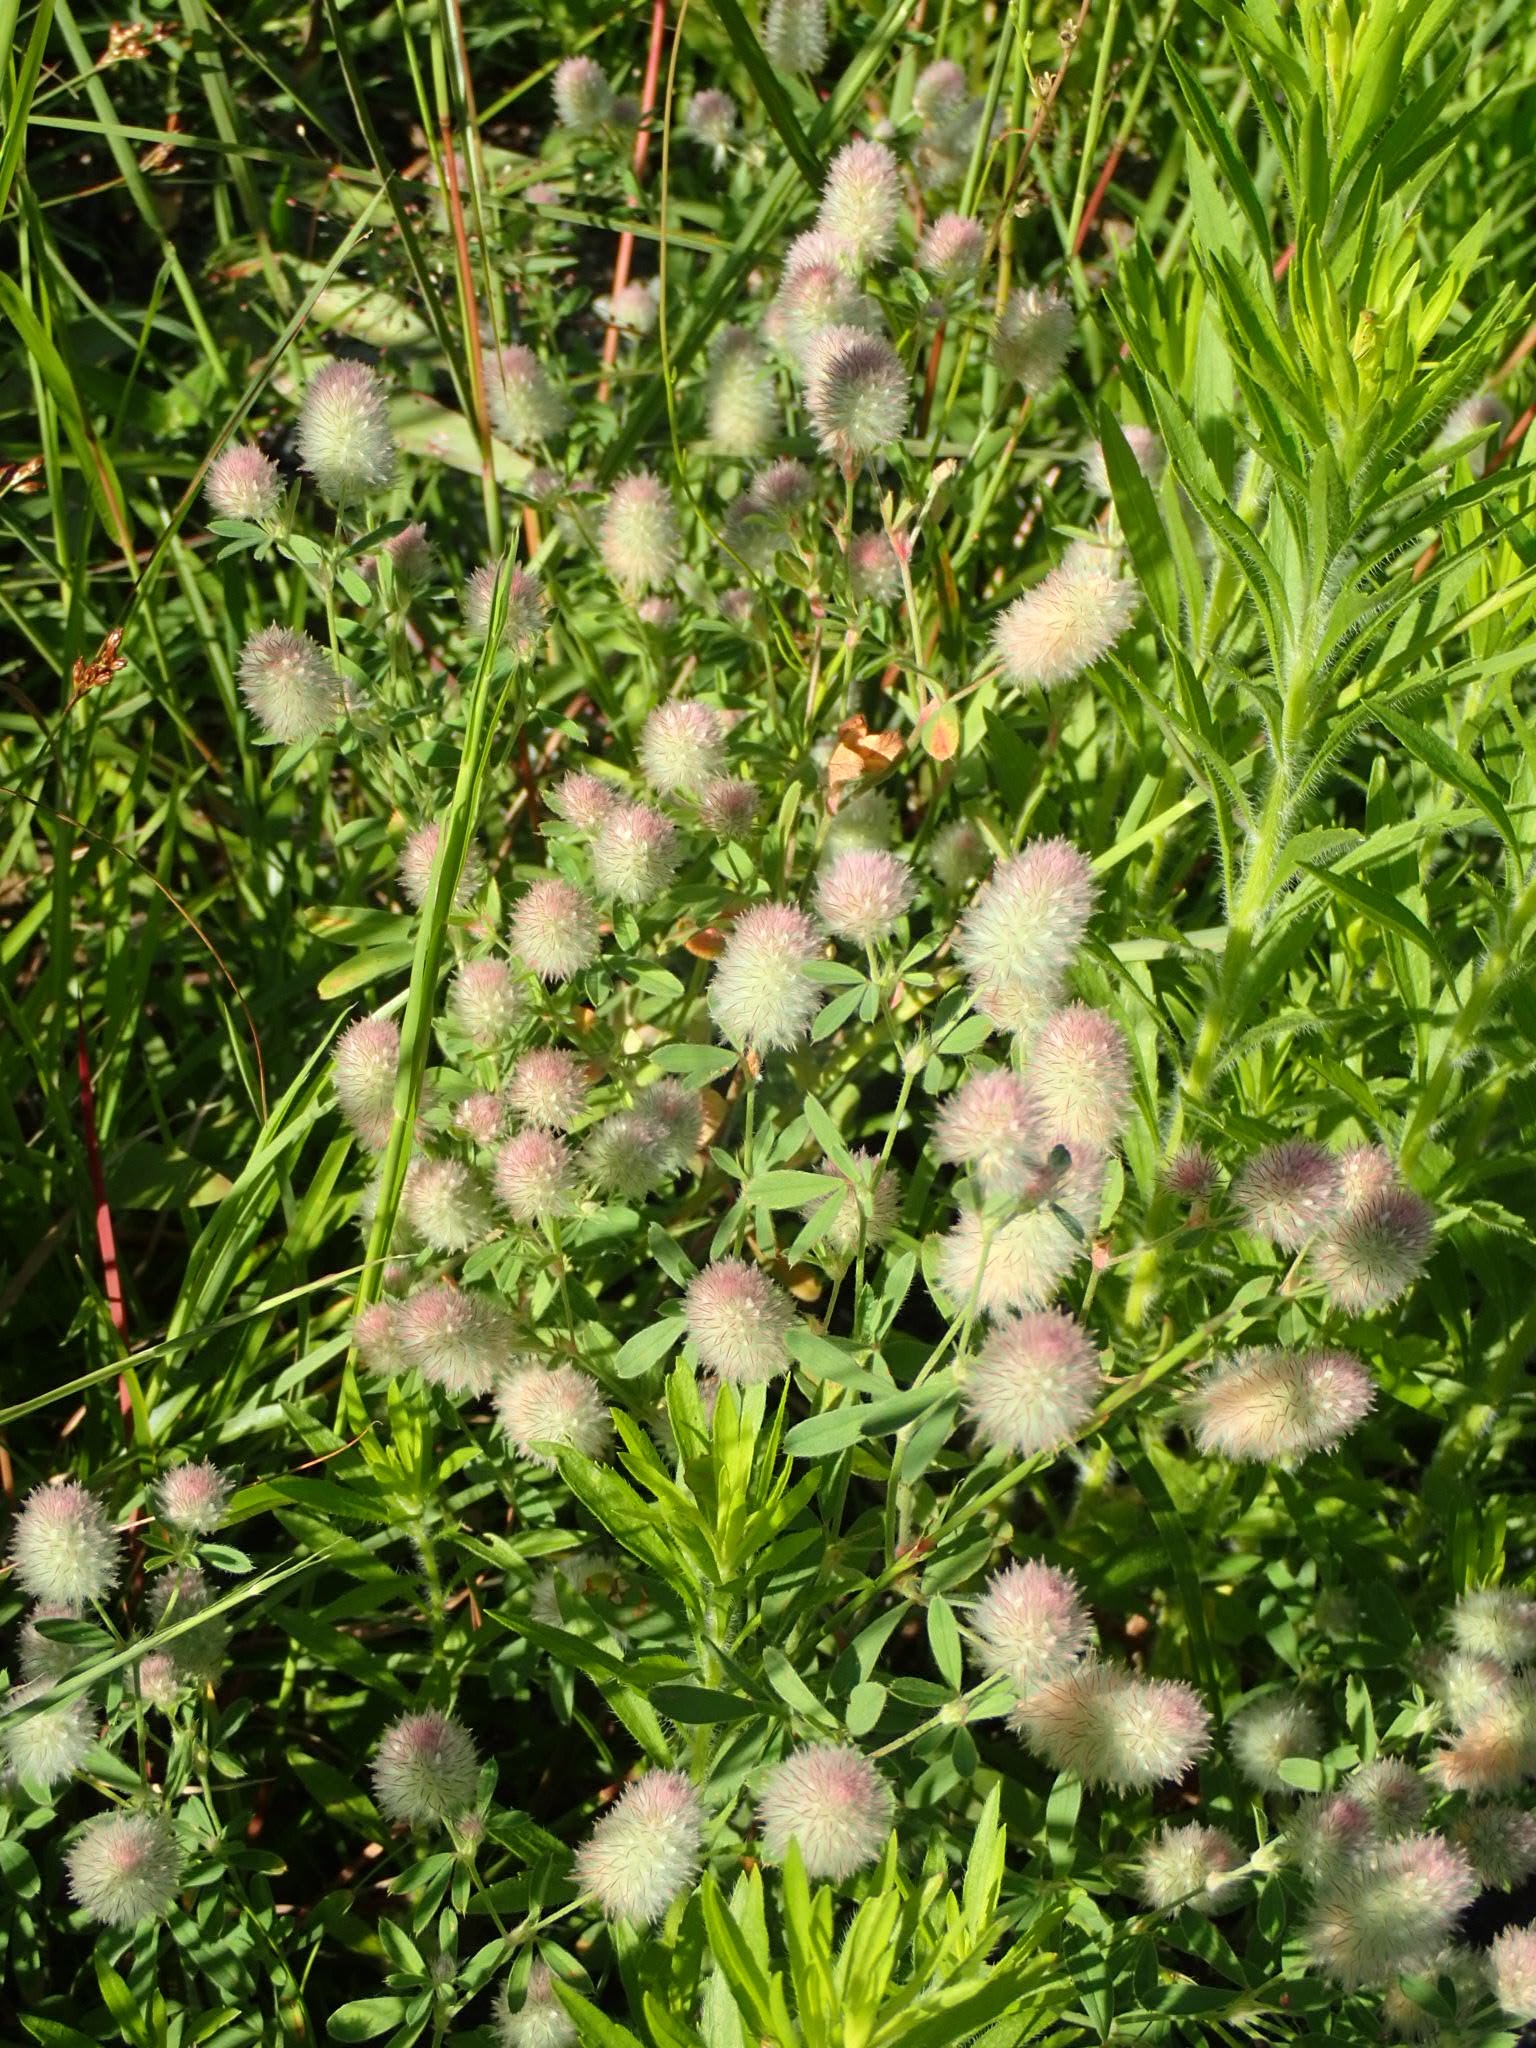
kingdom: Plantae
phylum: Tracheophyta
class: Magnoliopsida
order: Fabales
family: Fabaceae
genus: Trifolium
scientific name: Trifolium arvense
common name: Hare's-foot clover
